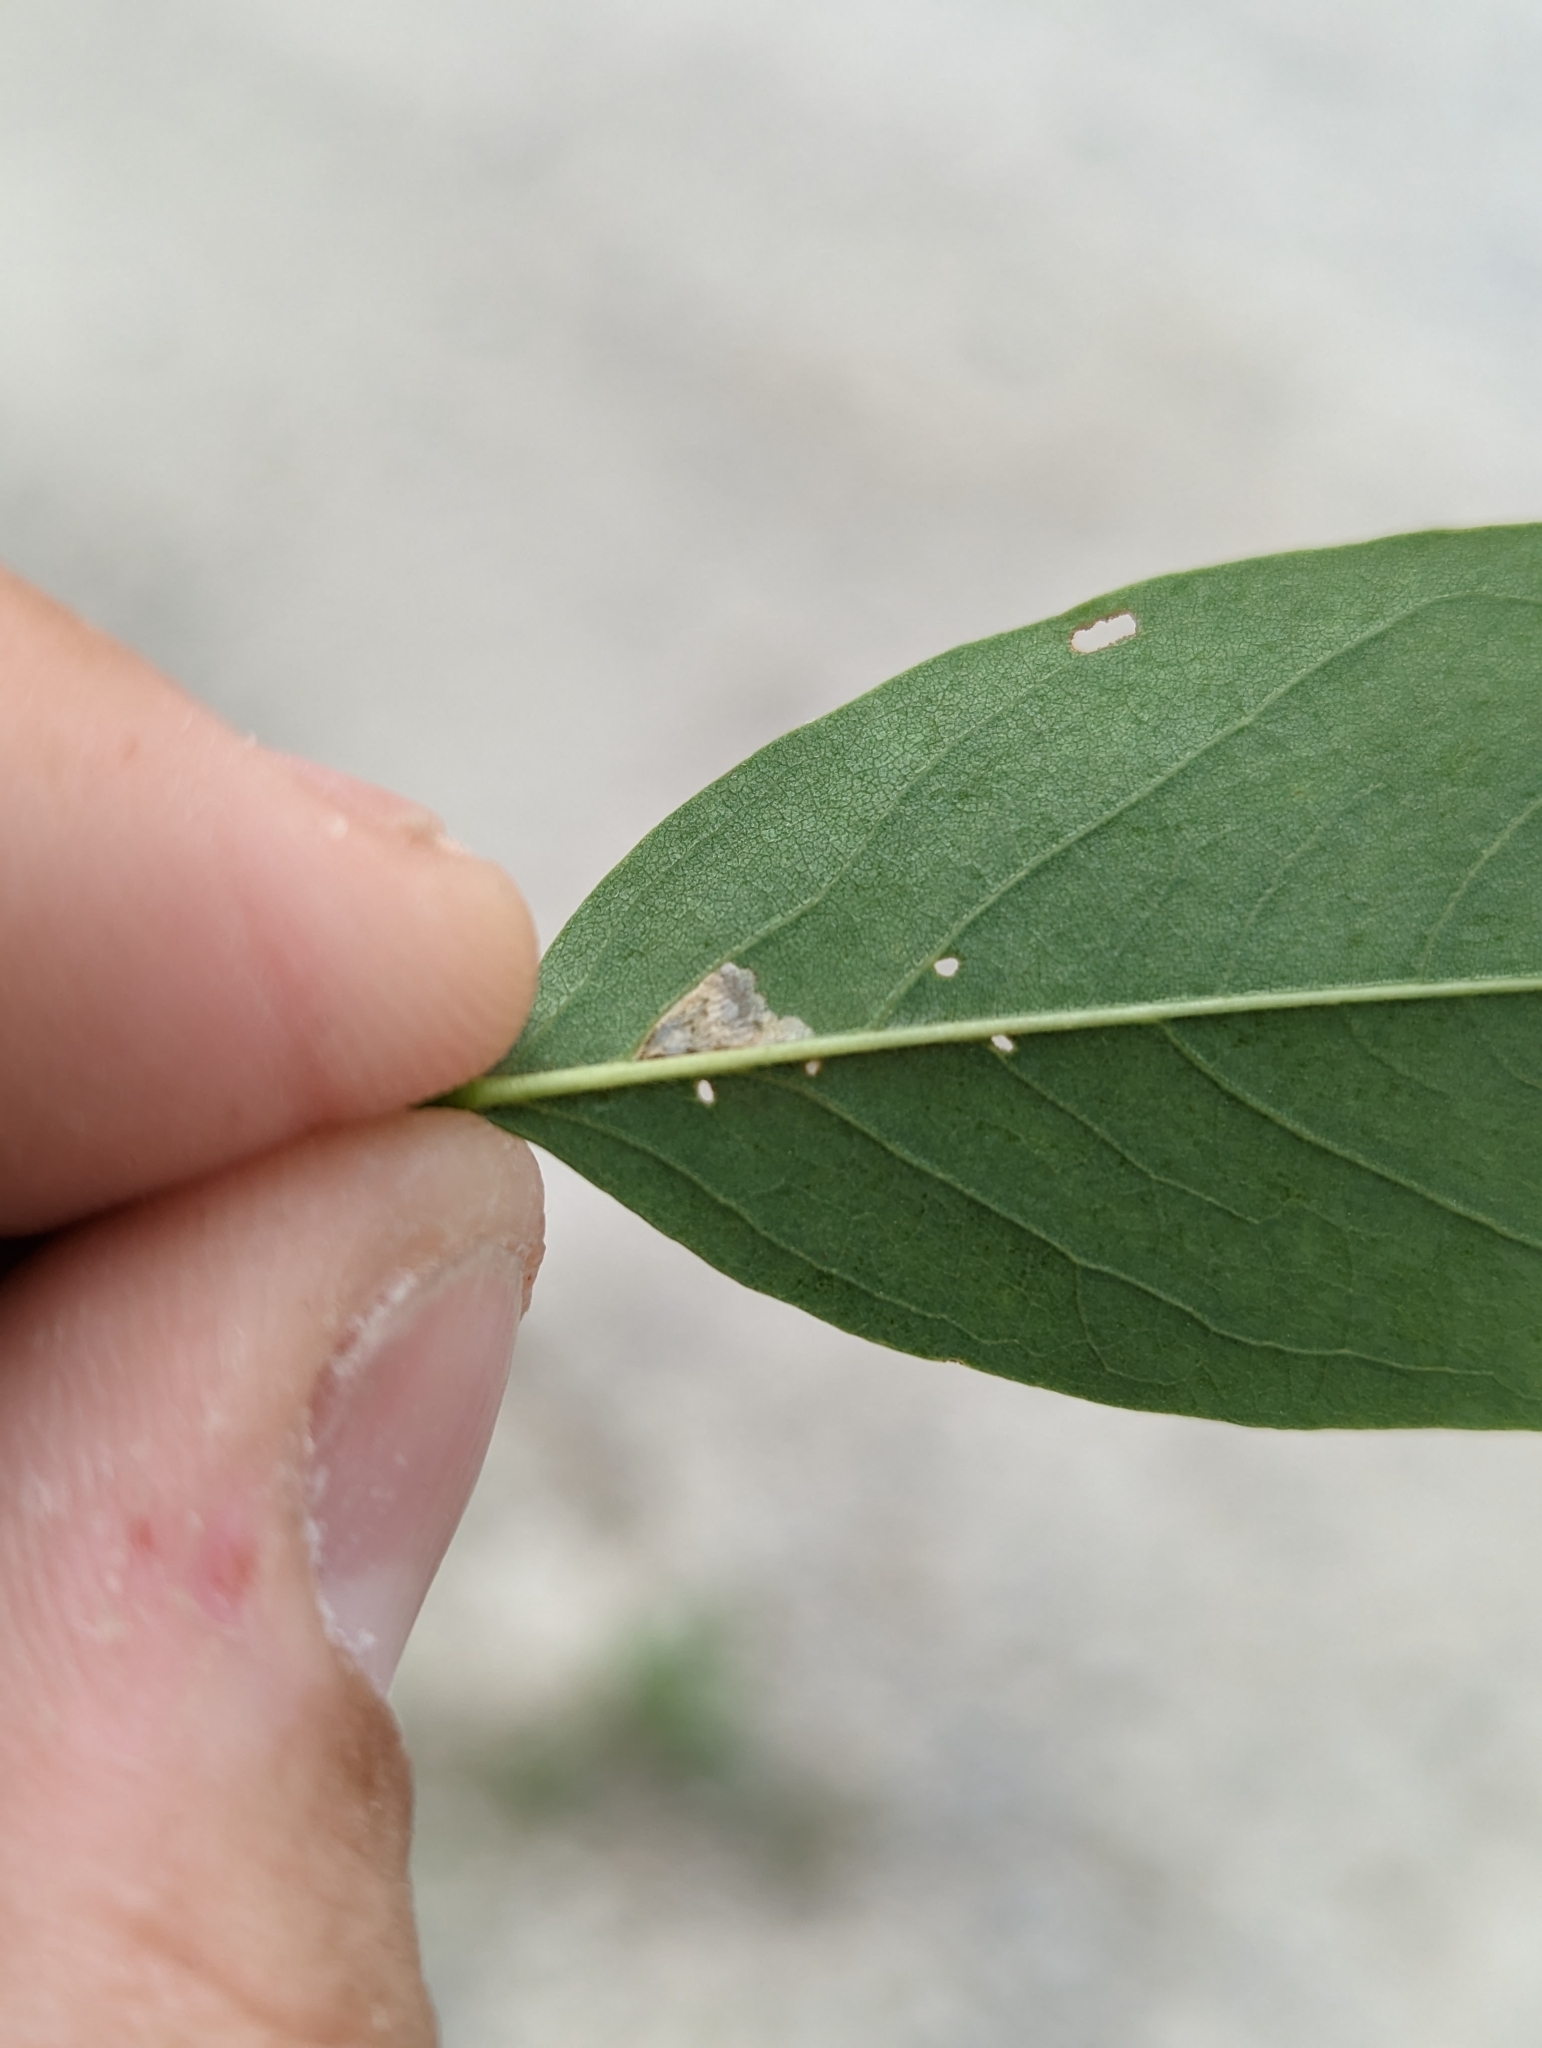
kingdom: Animalia
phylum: Arthropoda
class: Insecta
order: Lepidoptera
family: Gracillariidae
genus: Parectopa
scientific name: Parectopa robiniella
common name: Locust digitate leafminer
